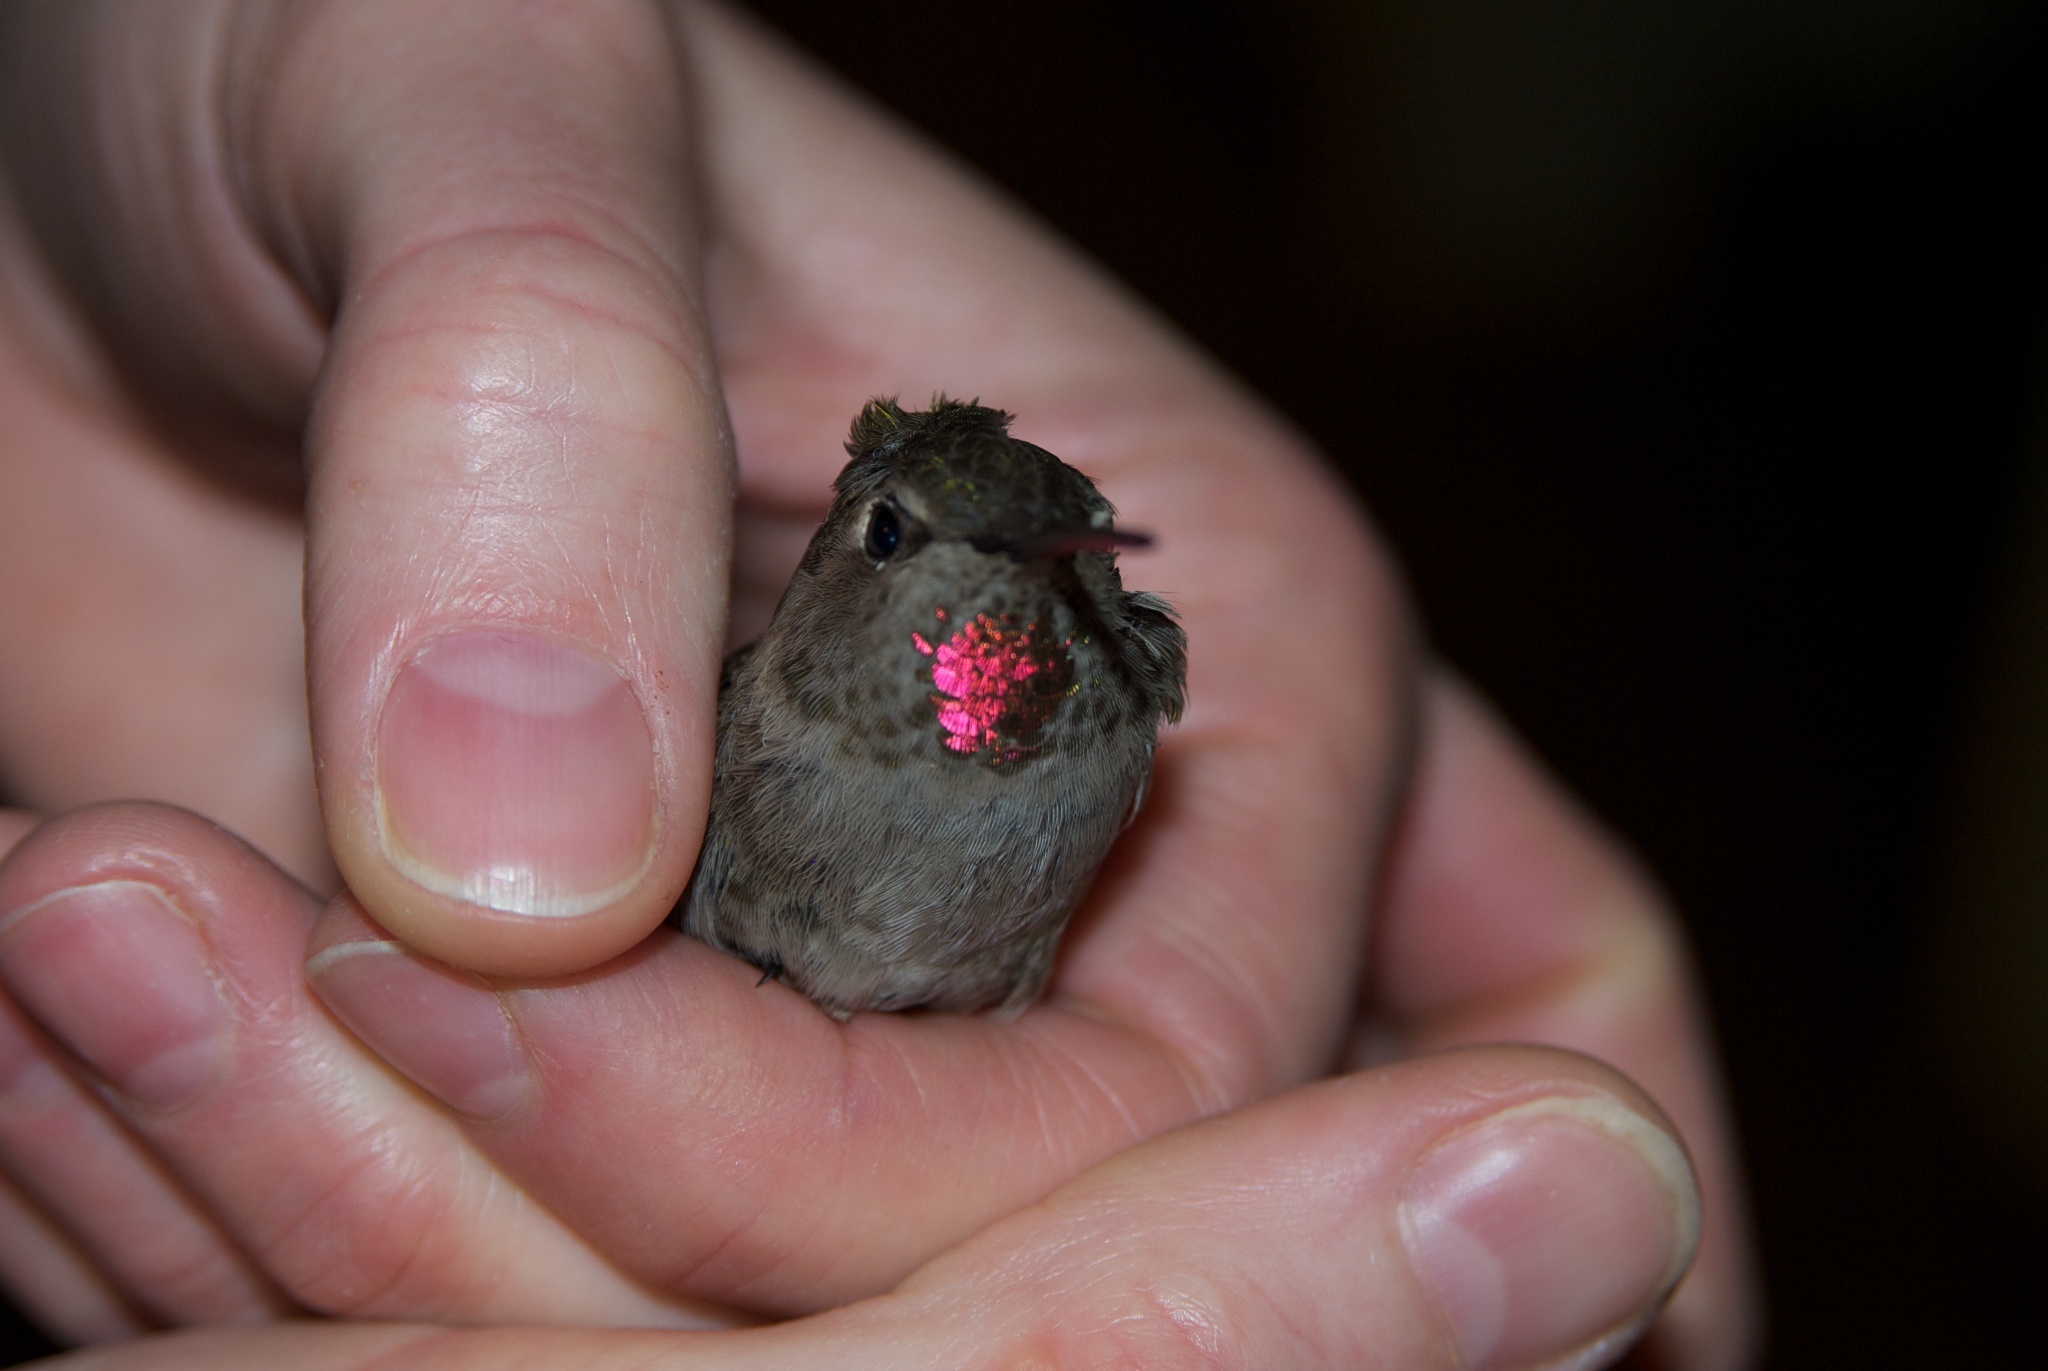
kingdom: Animalia
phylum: Chordata
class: Aves
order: Apodiformes
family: Trochilidae
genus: Calypte
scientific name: Calypte anna
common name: Anna's hummingbird
